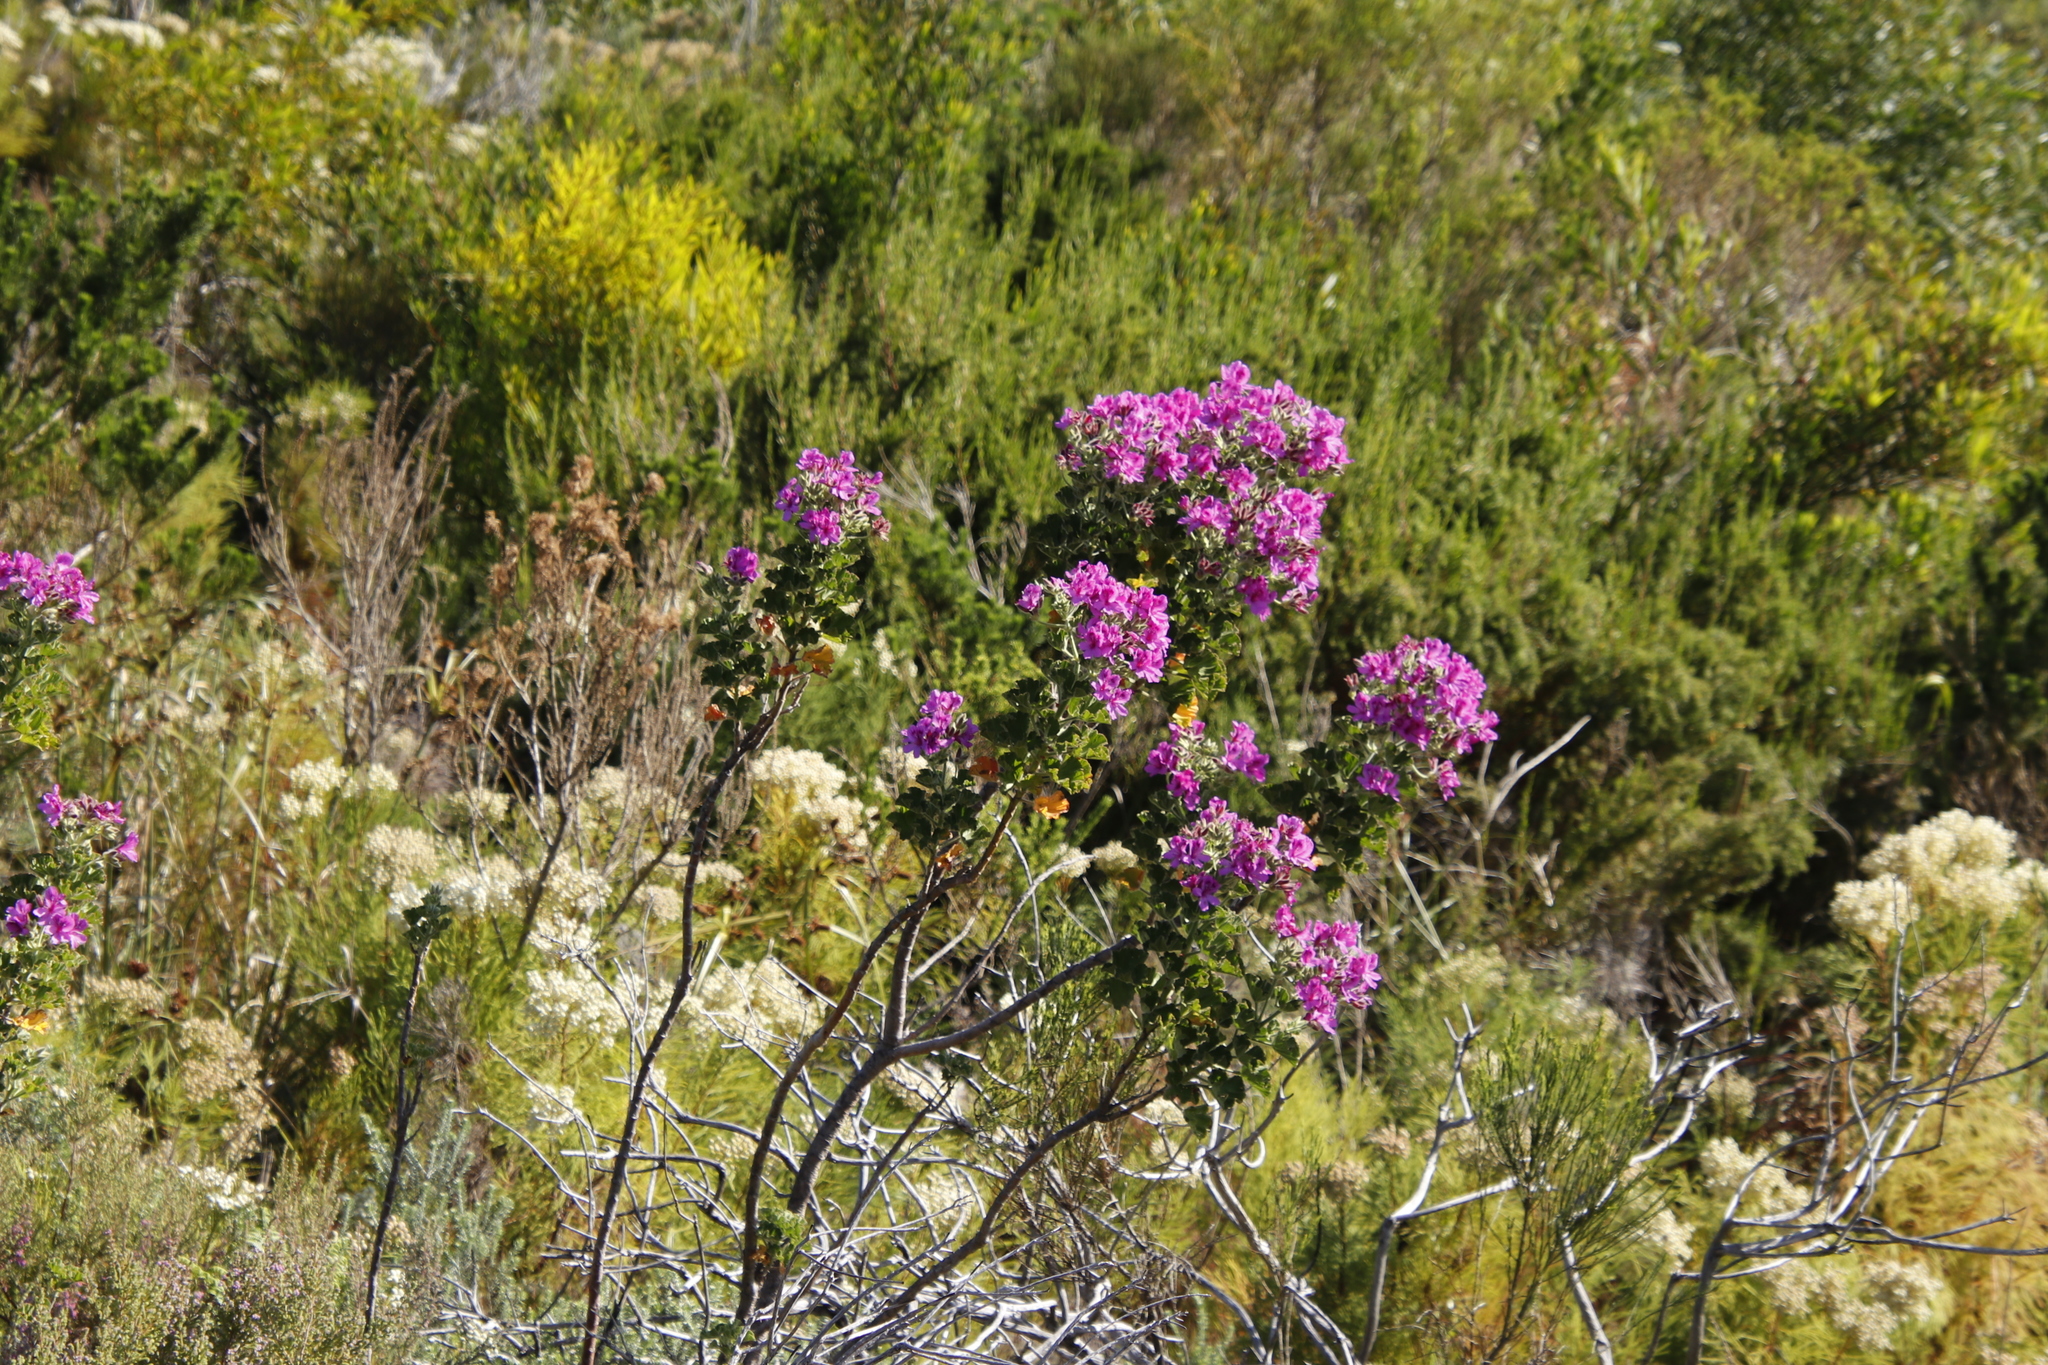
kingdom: Plantae
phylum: Tracheophyta
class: Magnoliopsida
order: Geraniales
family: Geraniaceae
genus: Pelargonium
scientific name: Pelargonium cucullatum
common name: Tree pelargonium
